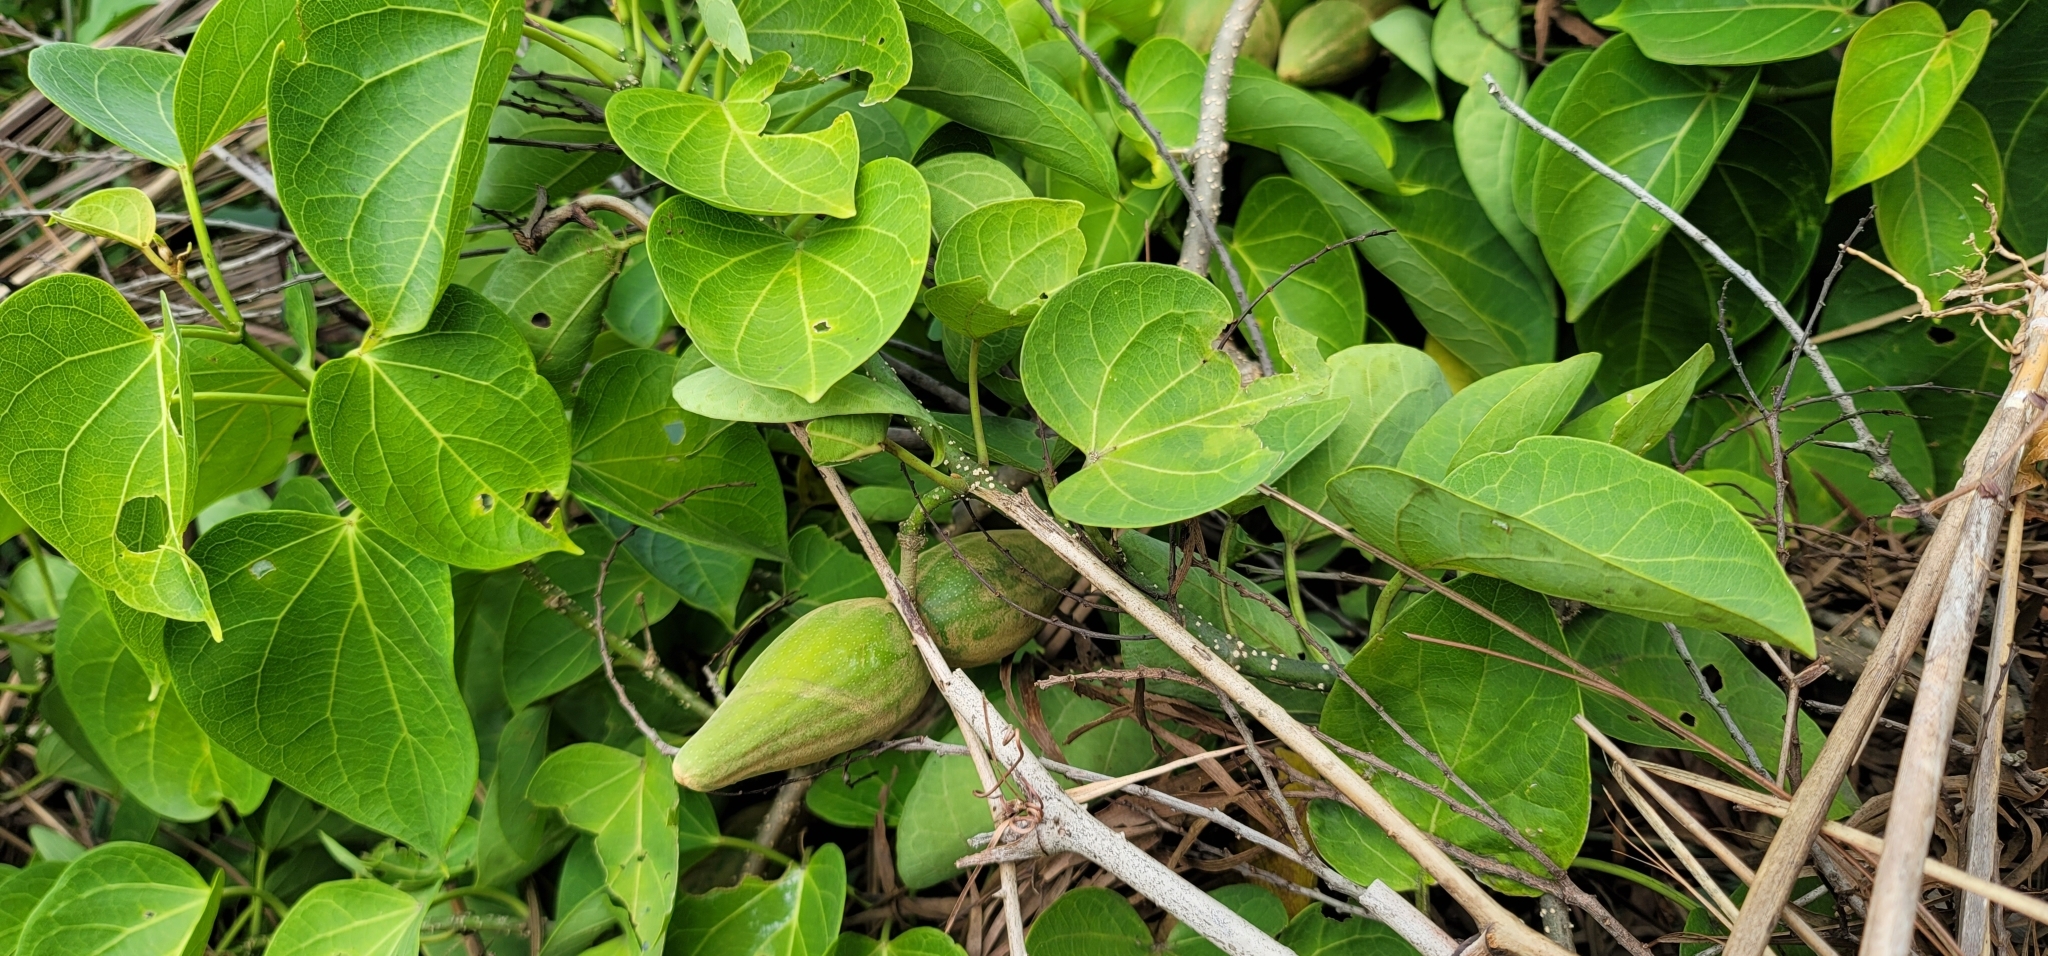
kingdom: Plantae
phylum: Tracheophyta
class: Magnoliopsida
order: Gentianales
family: Apocynaceae
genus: Stephanotis
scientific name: Stephanotis volubilis
